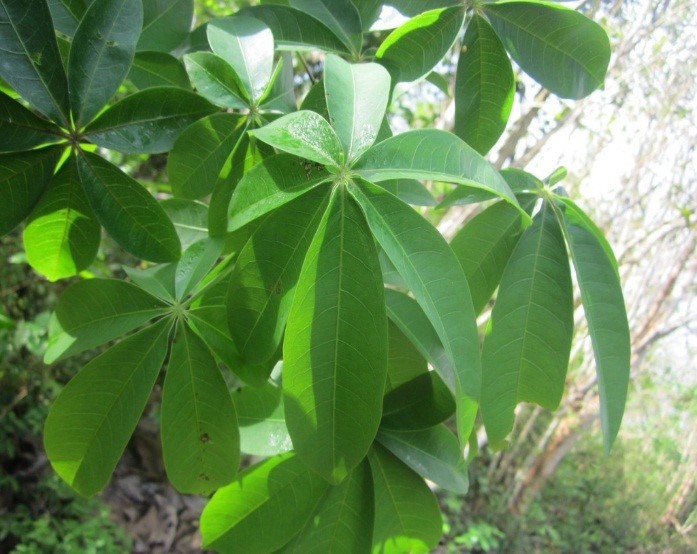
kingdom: Plantae
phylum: Tracheophyta
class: Magnoliopsida
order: Malvales
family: Malvaceae
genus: Ceiba
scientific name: Ceiba pentandra
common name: Kapok
